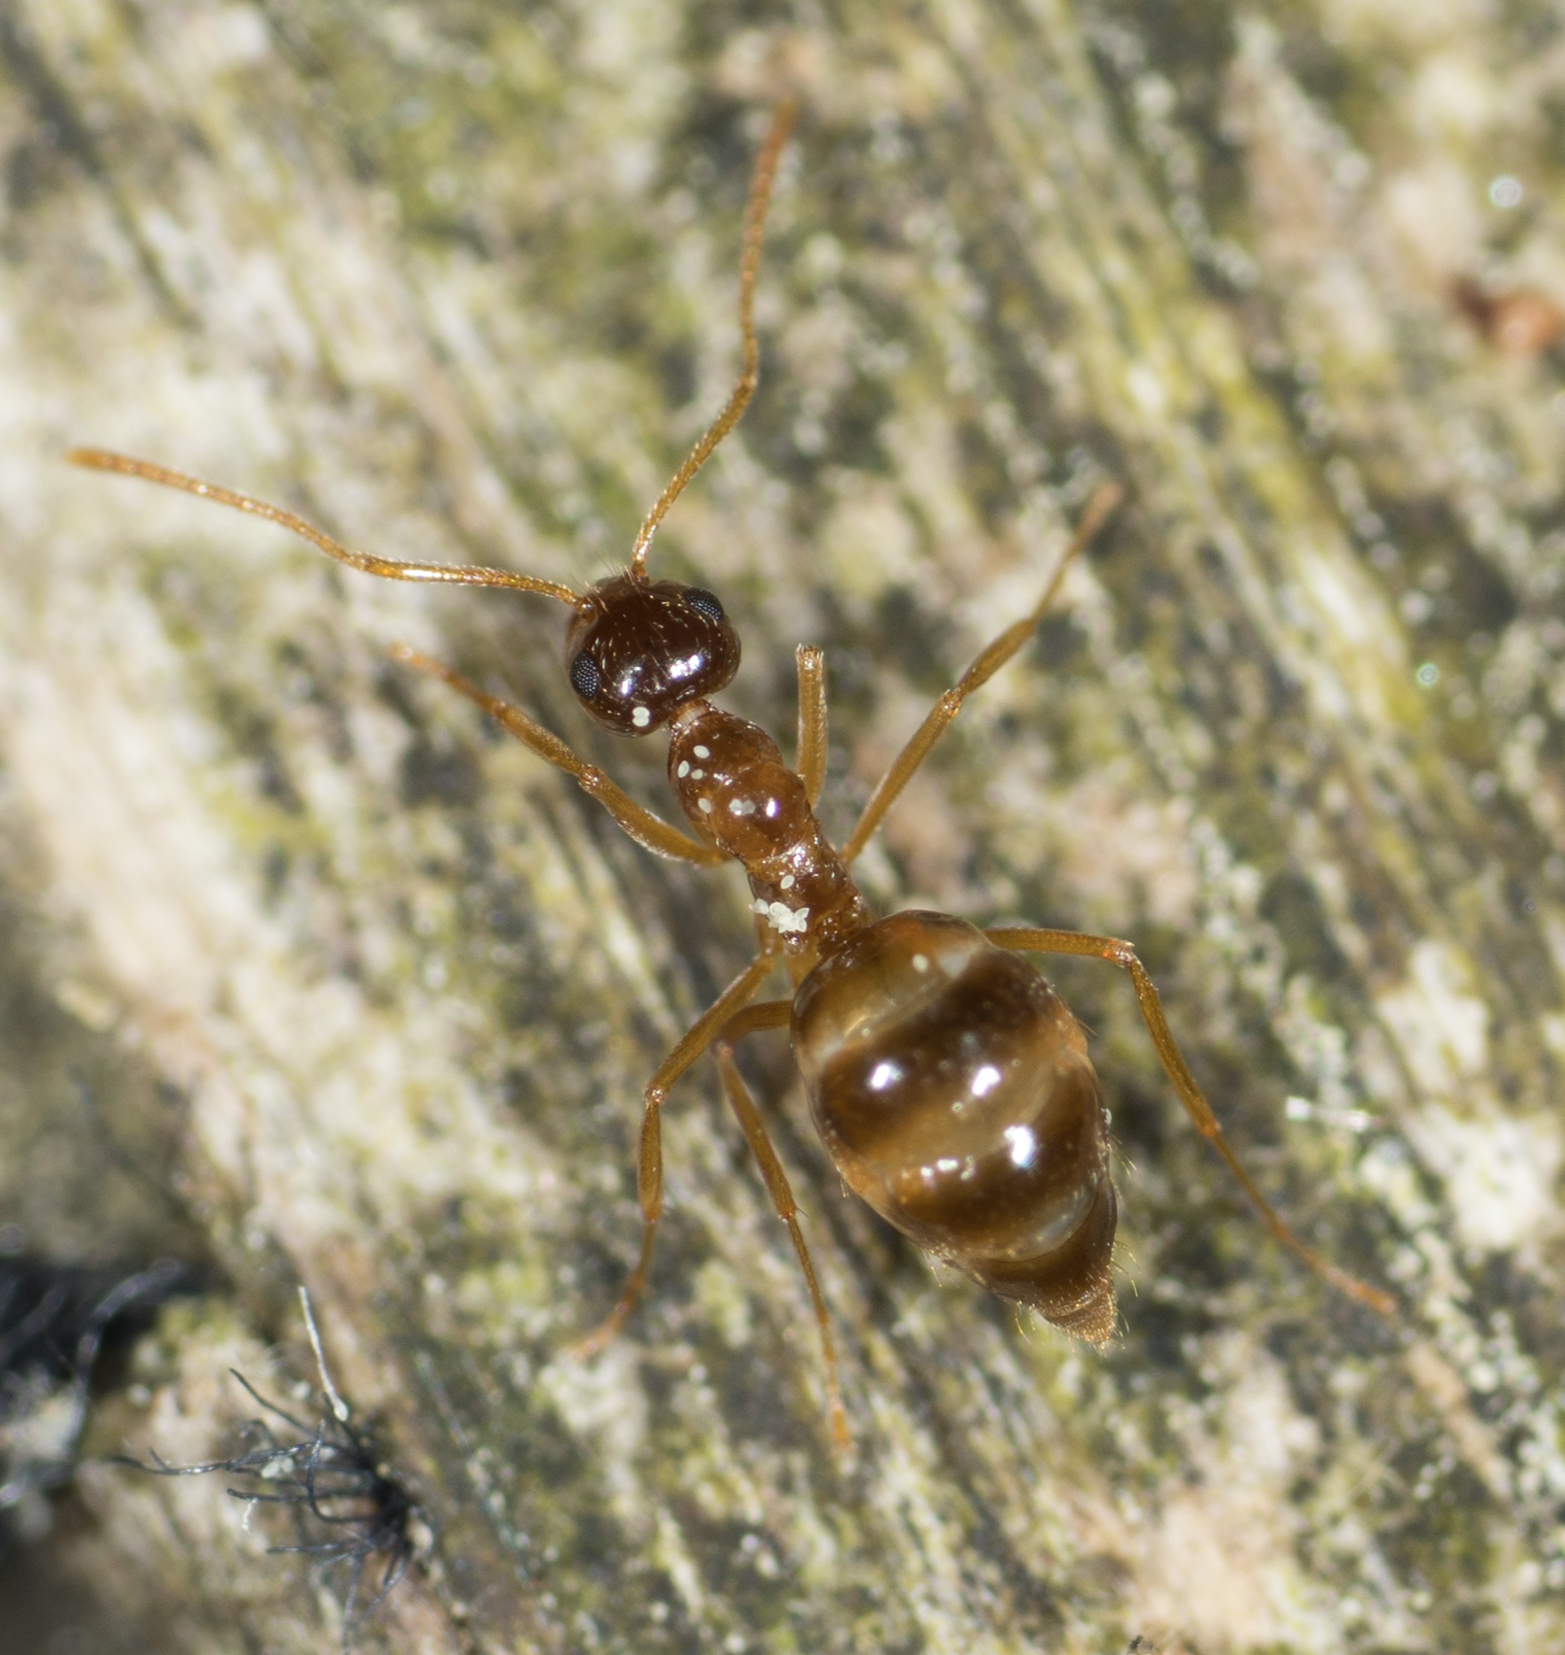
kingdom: Animalia
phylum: Arthropoda
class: Insecta
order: Hymenoptera
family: Formicidae
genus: Prenolepis
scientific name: Prenolepis imparis
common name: Small honey ant
